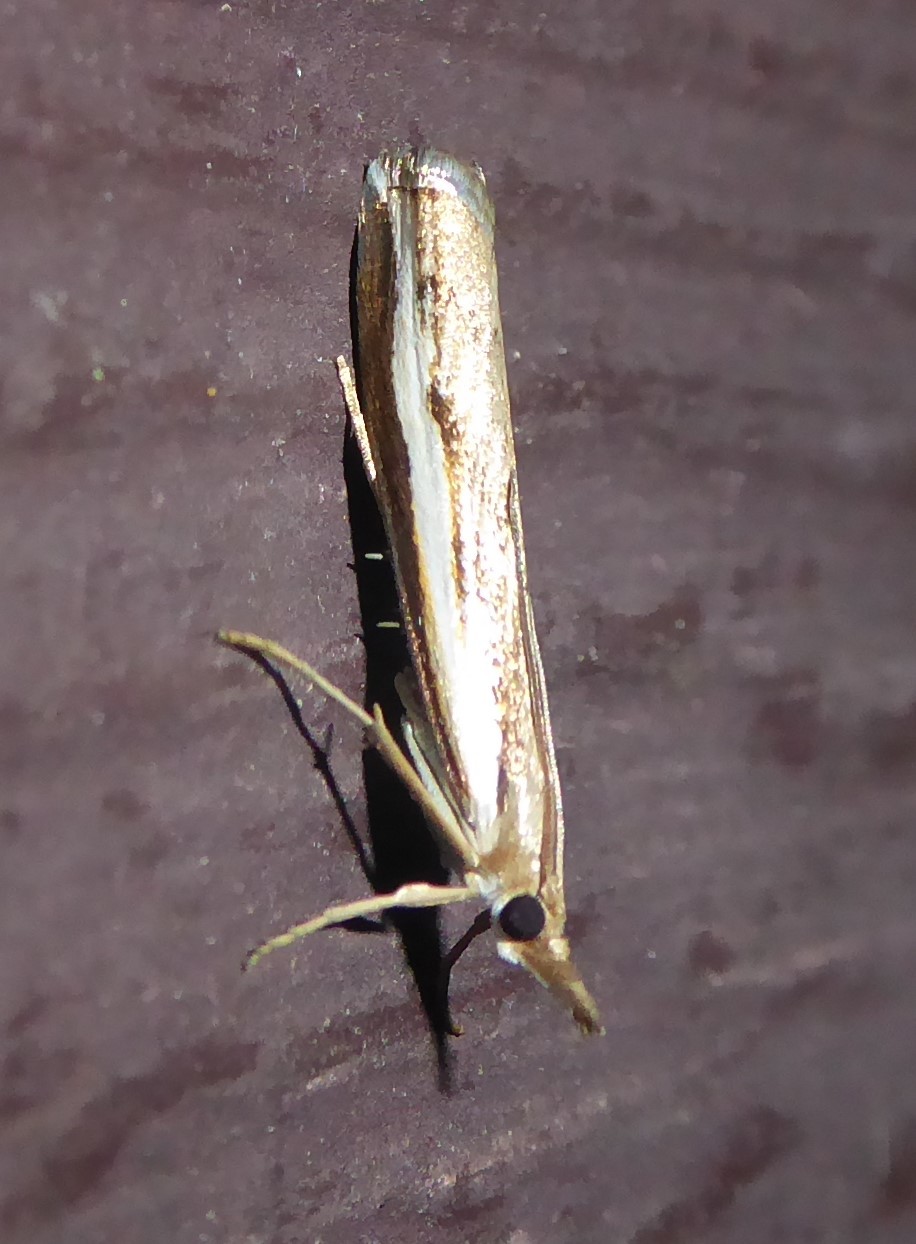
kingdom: Animalia
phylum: Arthropoda
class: Insecta
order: Lepidoptera
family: Crambidae
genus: Orocrambus
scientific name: Orocrambus flexuosellus
